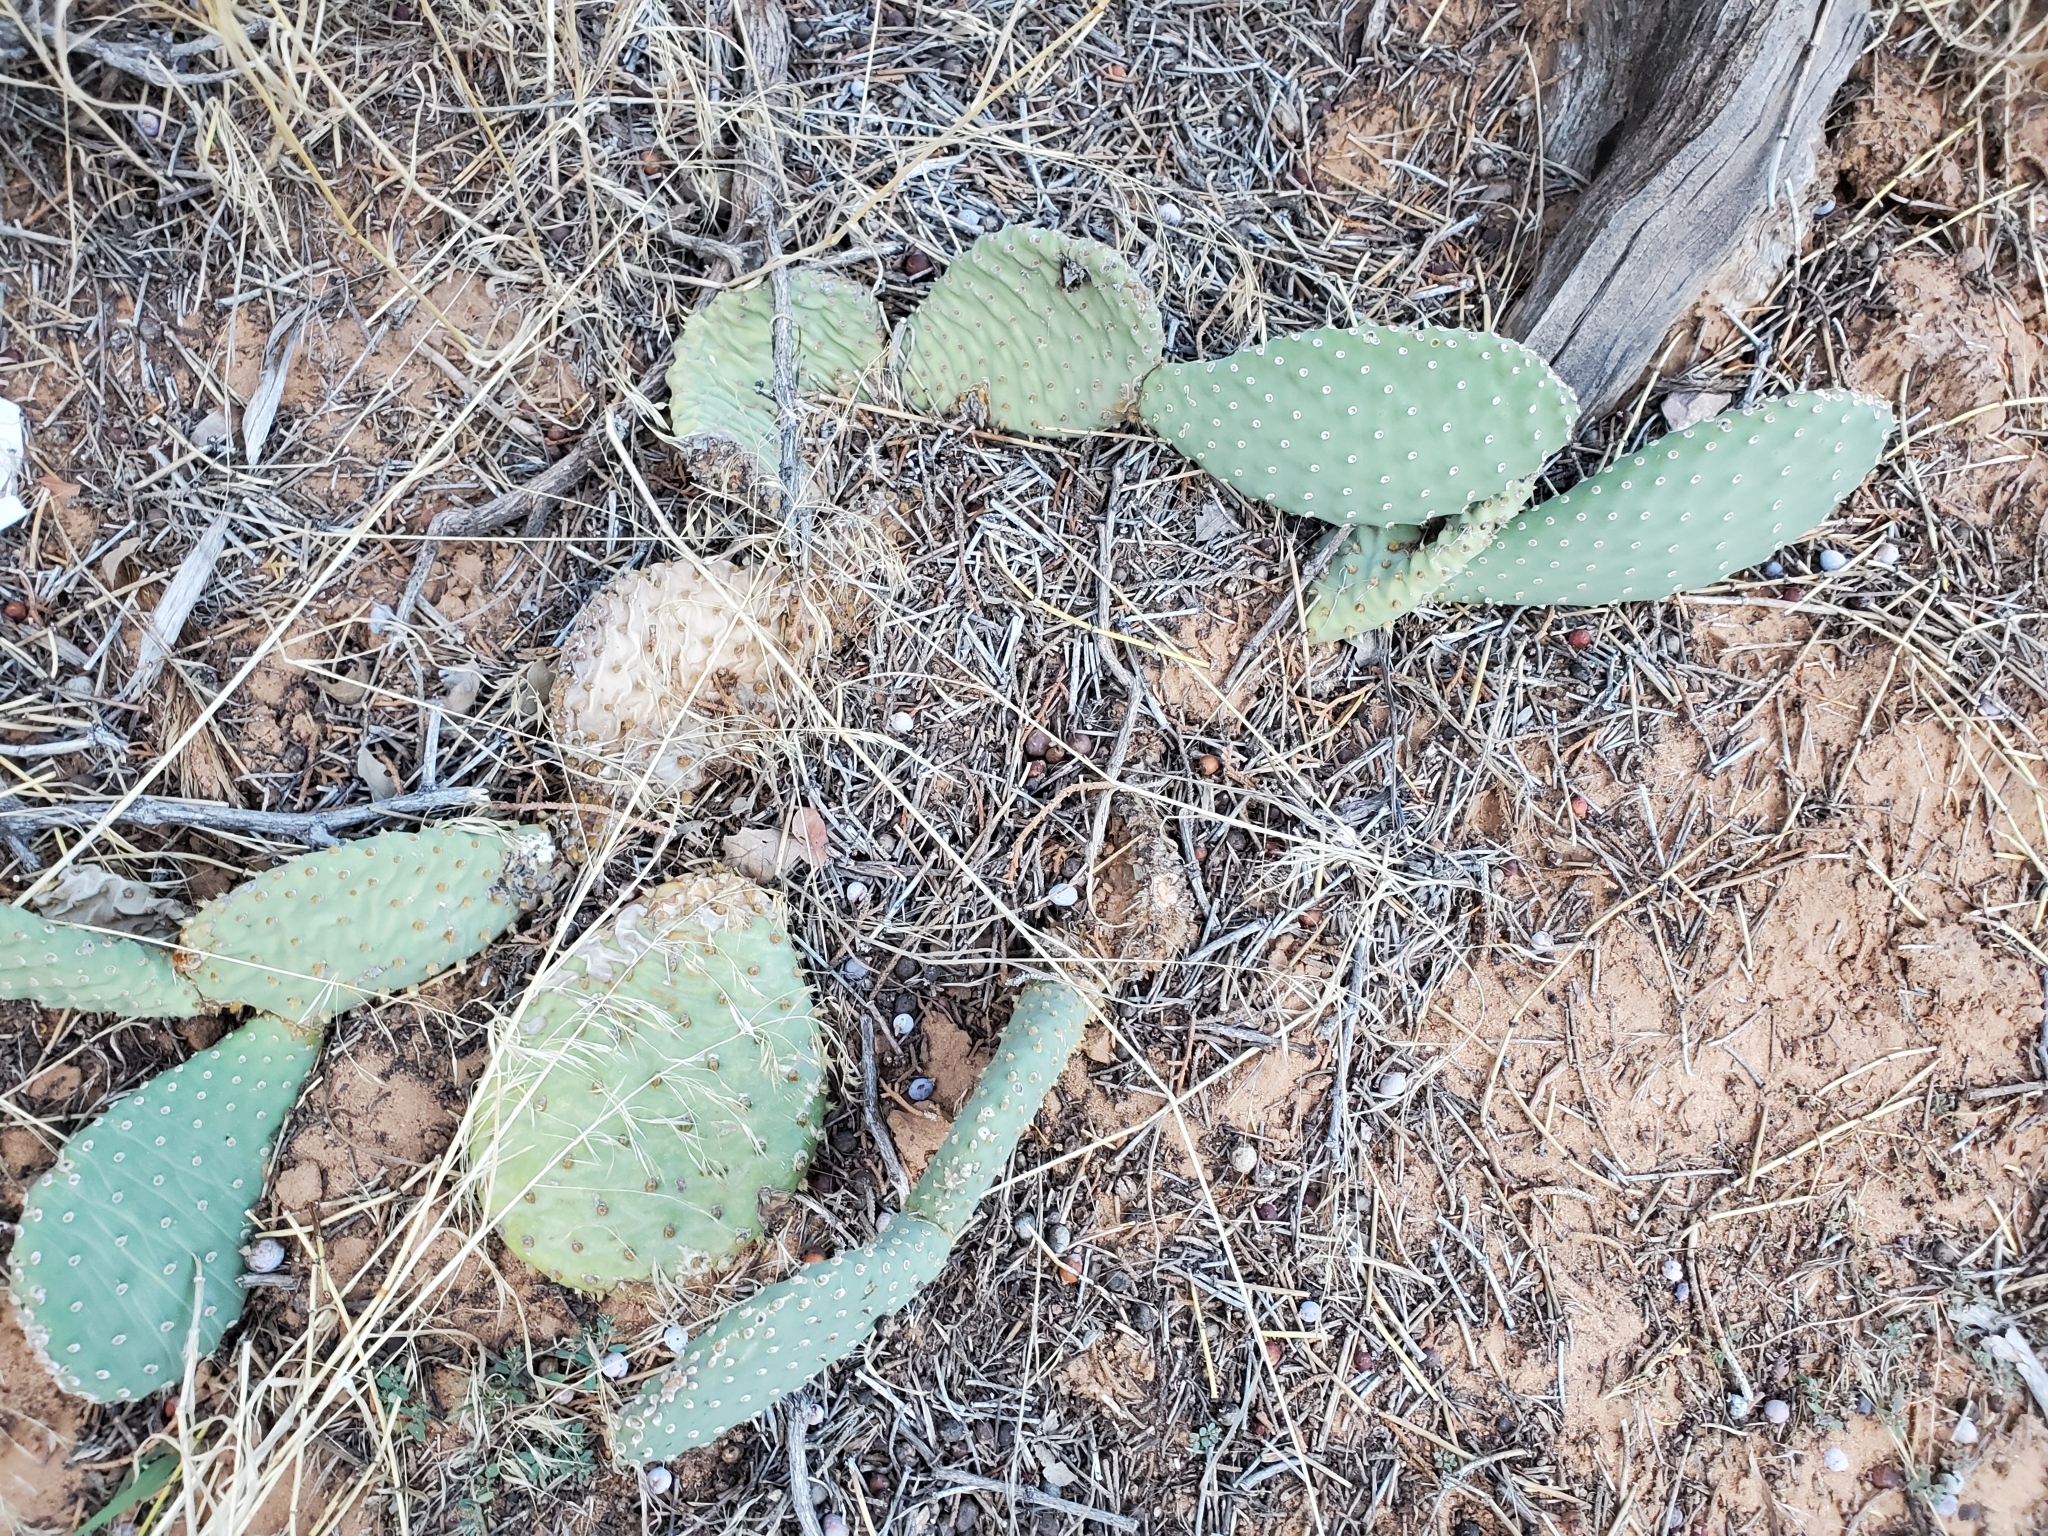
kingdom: Plantae
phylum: Tracheophyta
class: Magnoliopsida
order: Caryophyllales
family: Cactaceae
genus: Opuntia
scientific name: Opuntia aurea
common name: Golden prickly-pear
